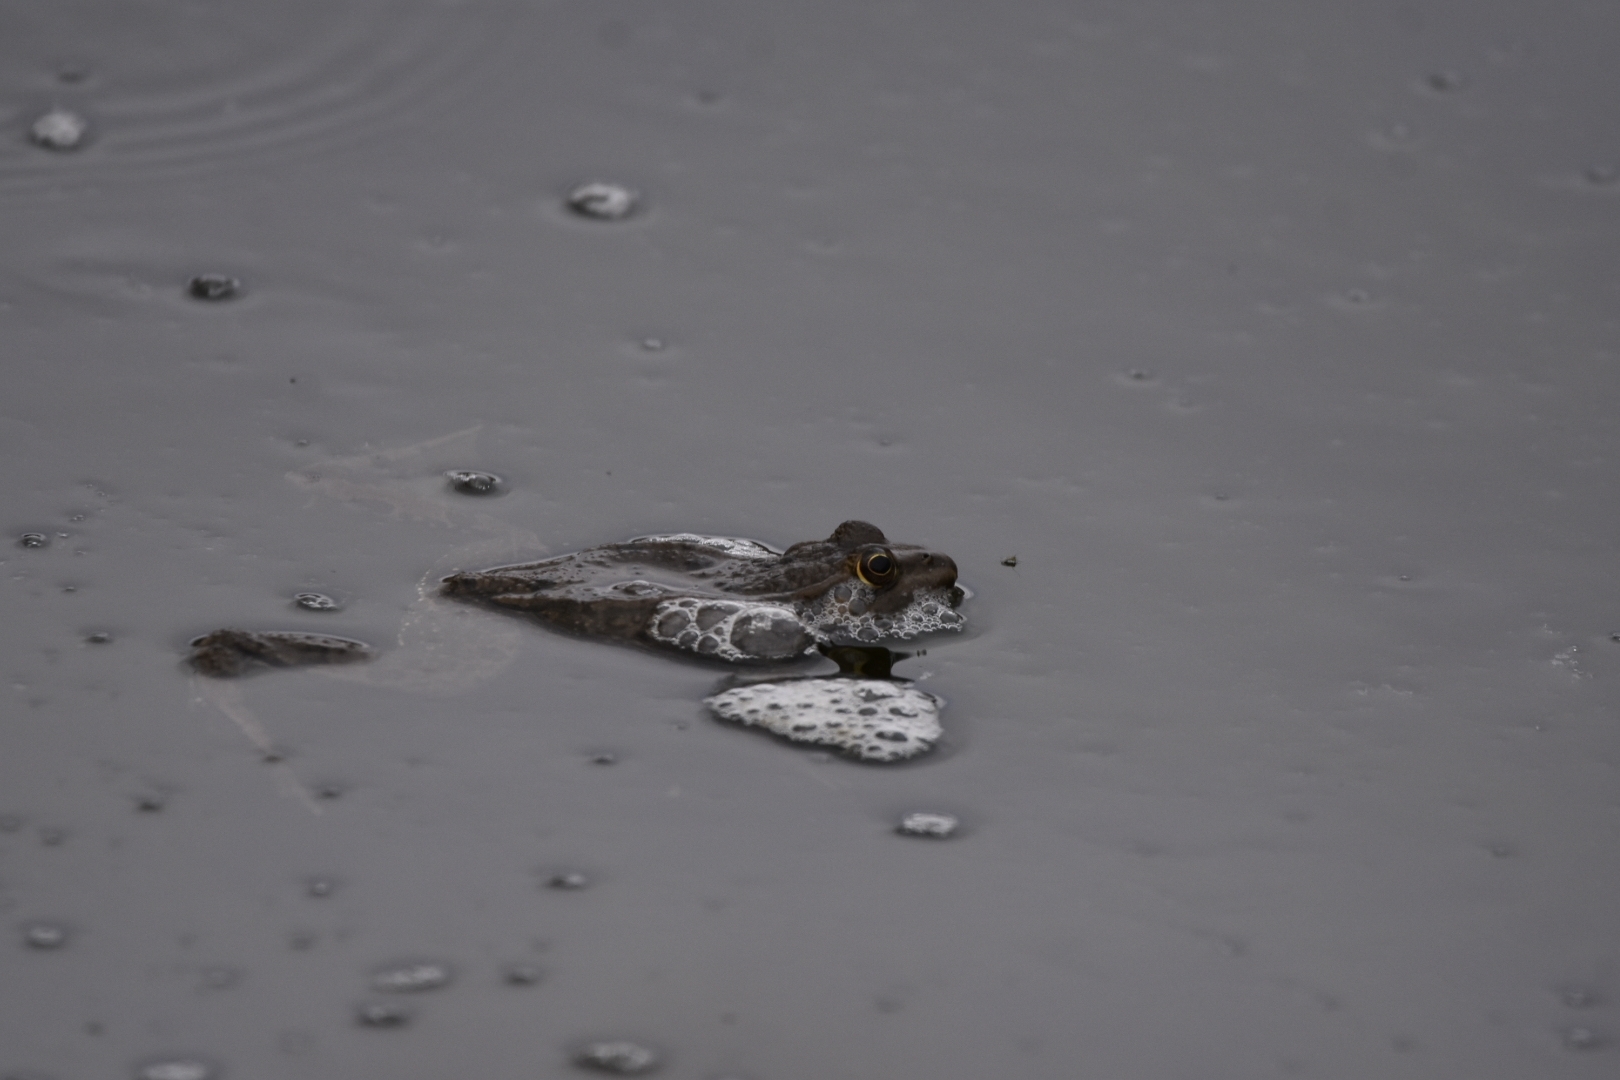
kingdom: Animalia
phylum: Chordata
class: Amphibia
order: Anura
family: Ranidae
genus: Pelophylax
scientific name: Pelophylax ridibundus
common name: Marsh frog
